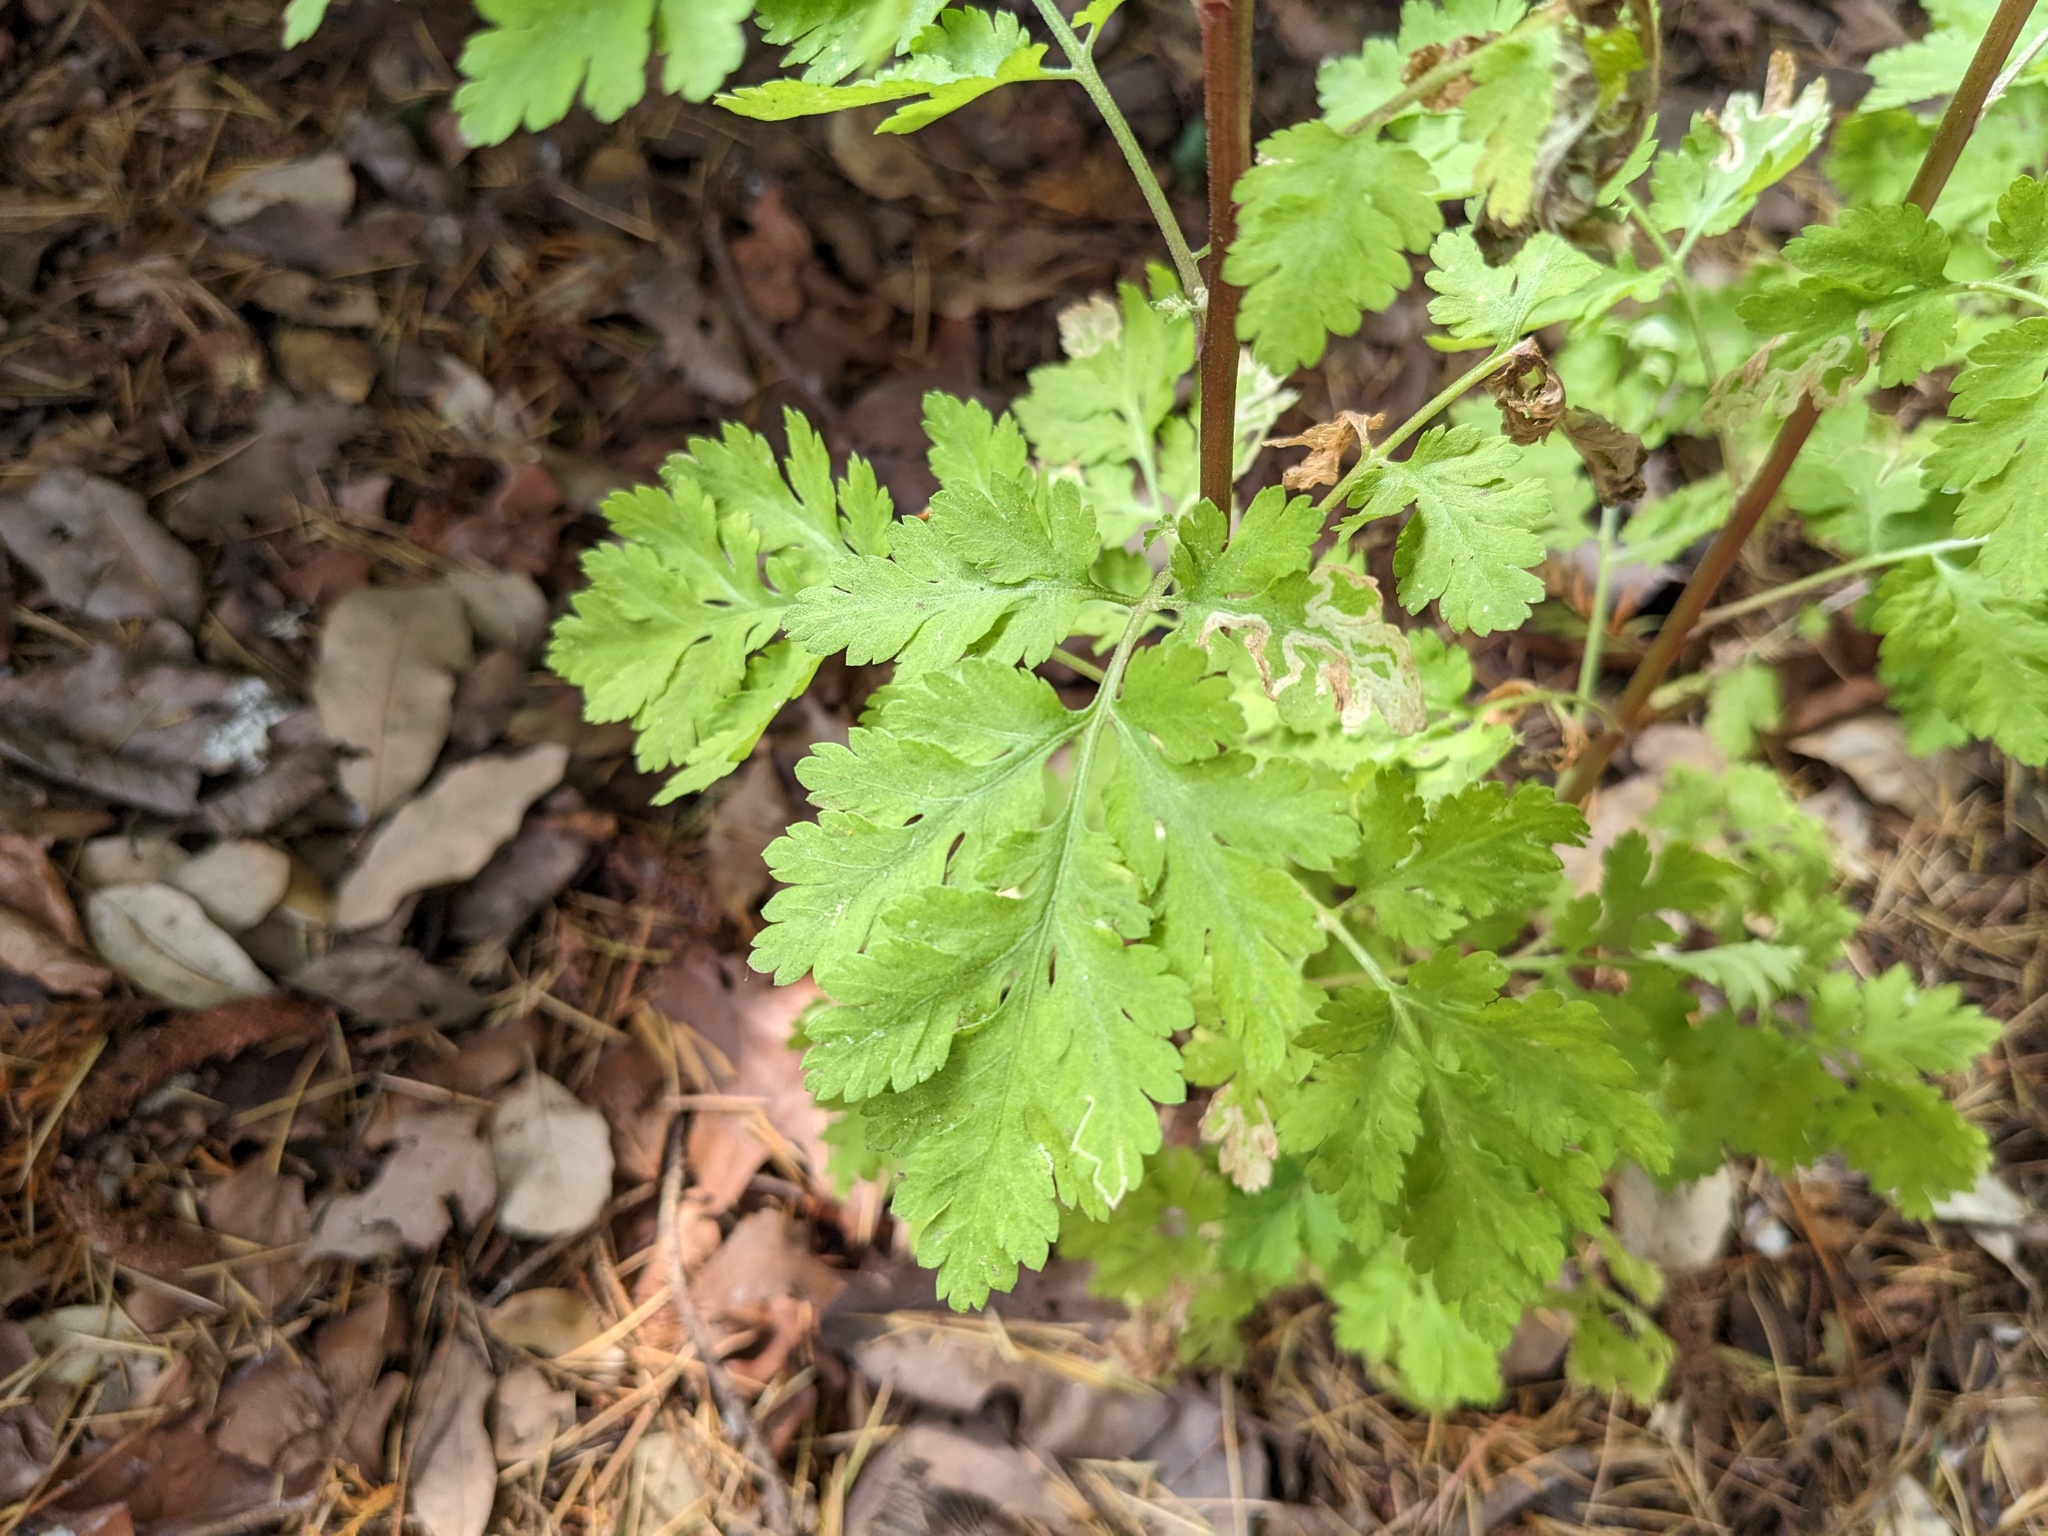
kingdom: Plantae
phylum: Tracheophyta
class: Magnoliopsida
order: Asterales
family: Asteraceae
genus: Tanacetum
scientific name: Tanacetum parthenium
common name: Feverfew
